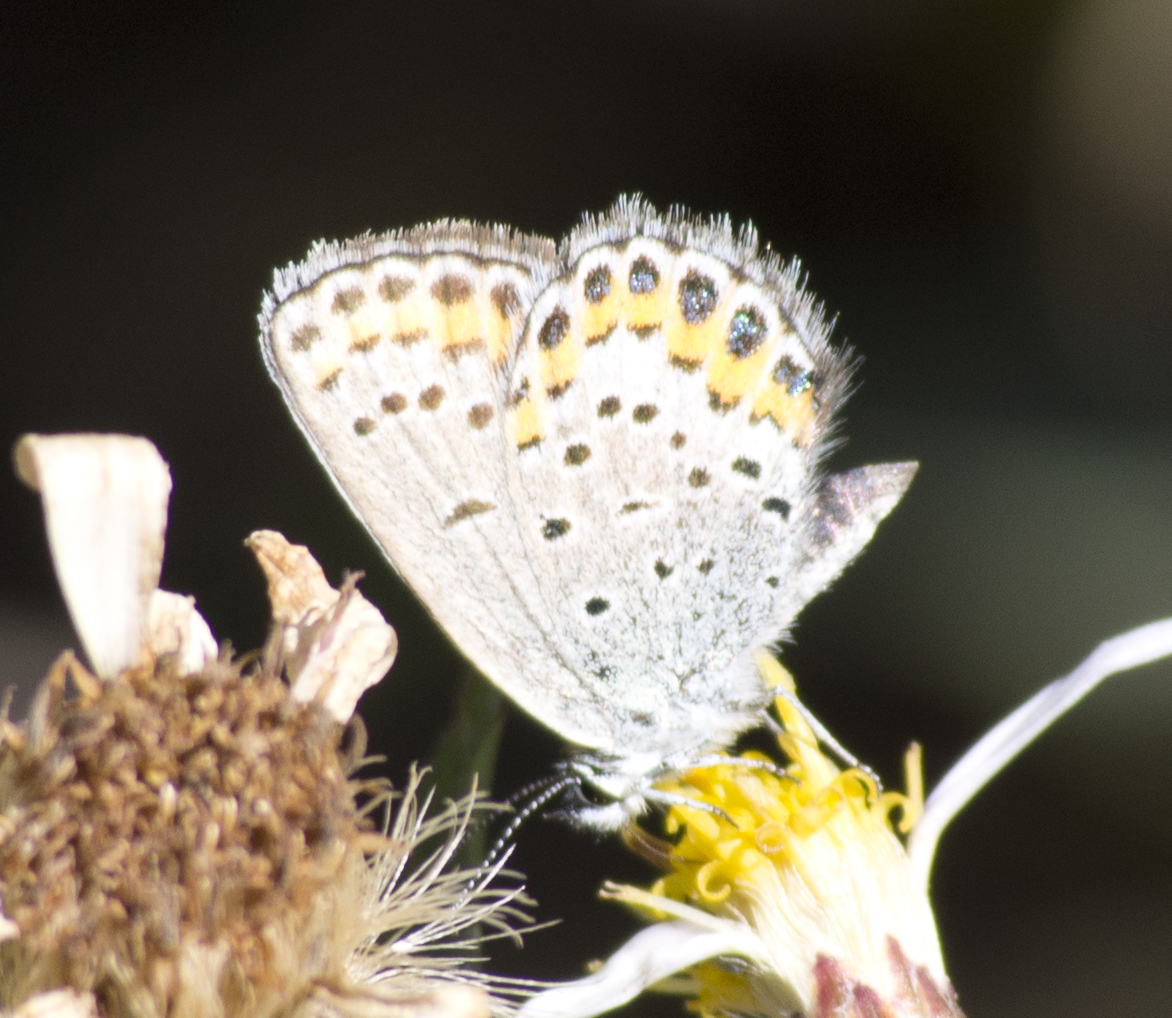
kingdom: Animalia
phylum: Arthropoda
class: Insecta
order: Lepidoptera
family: Lycaenidae
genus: Lycaeides
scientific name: Lycaeides melissa
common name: Melissa blue
